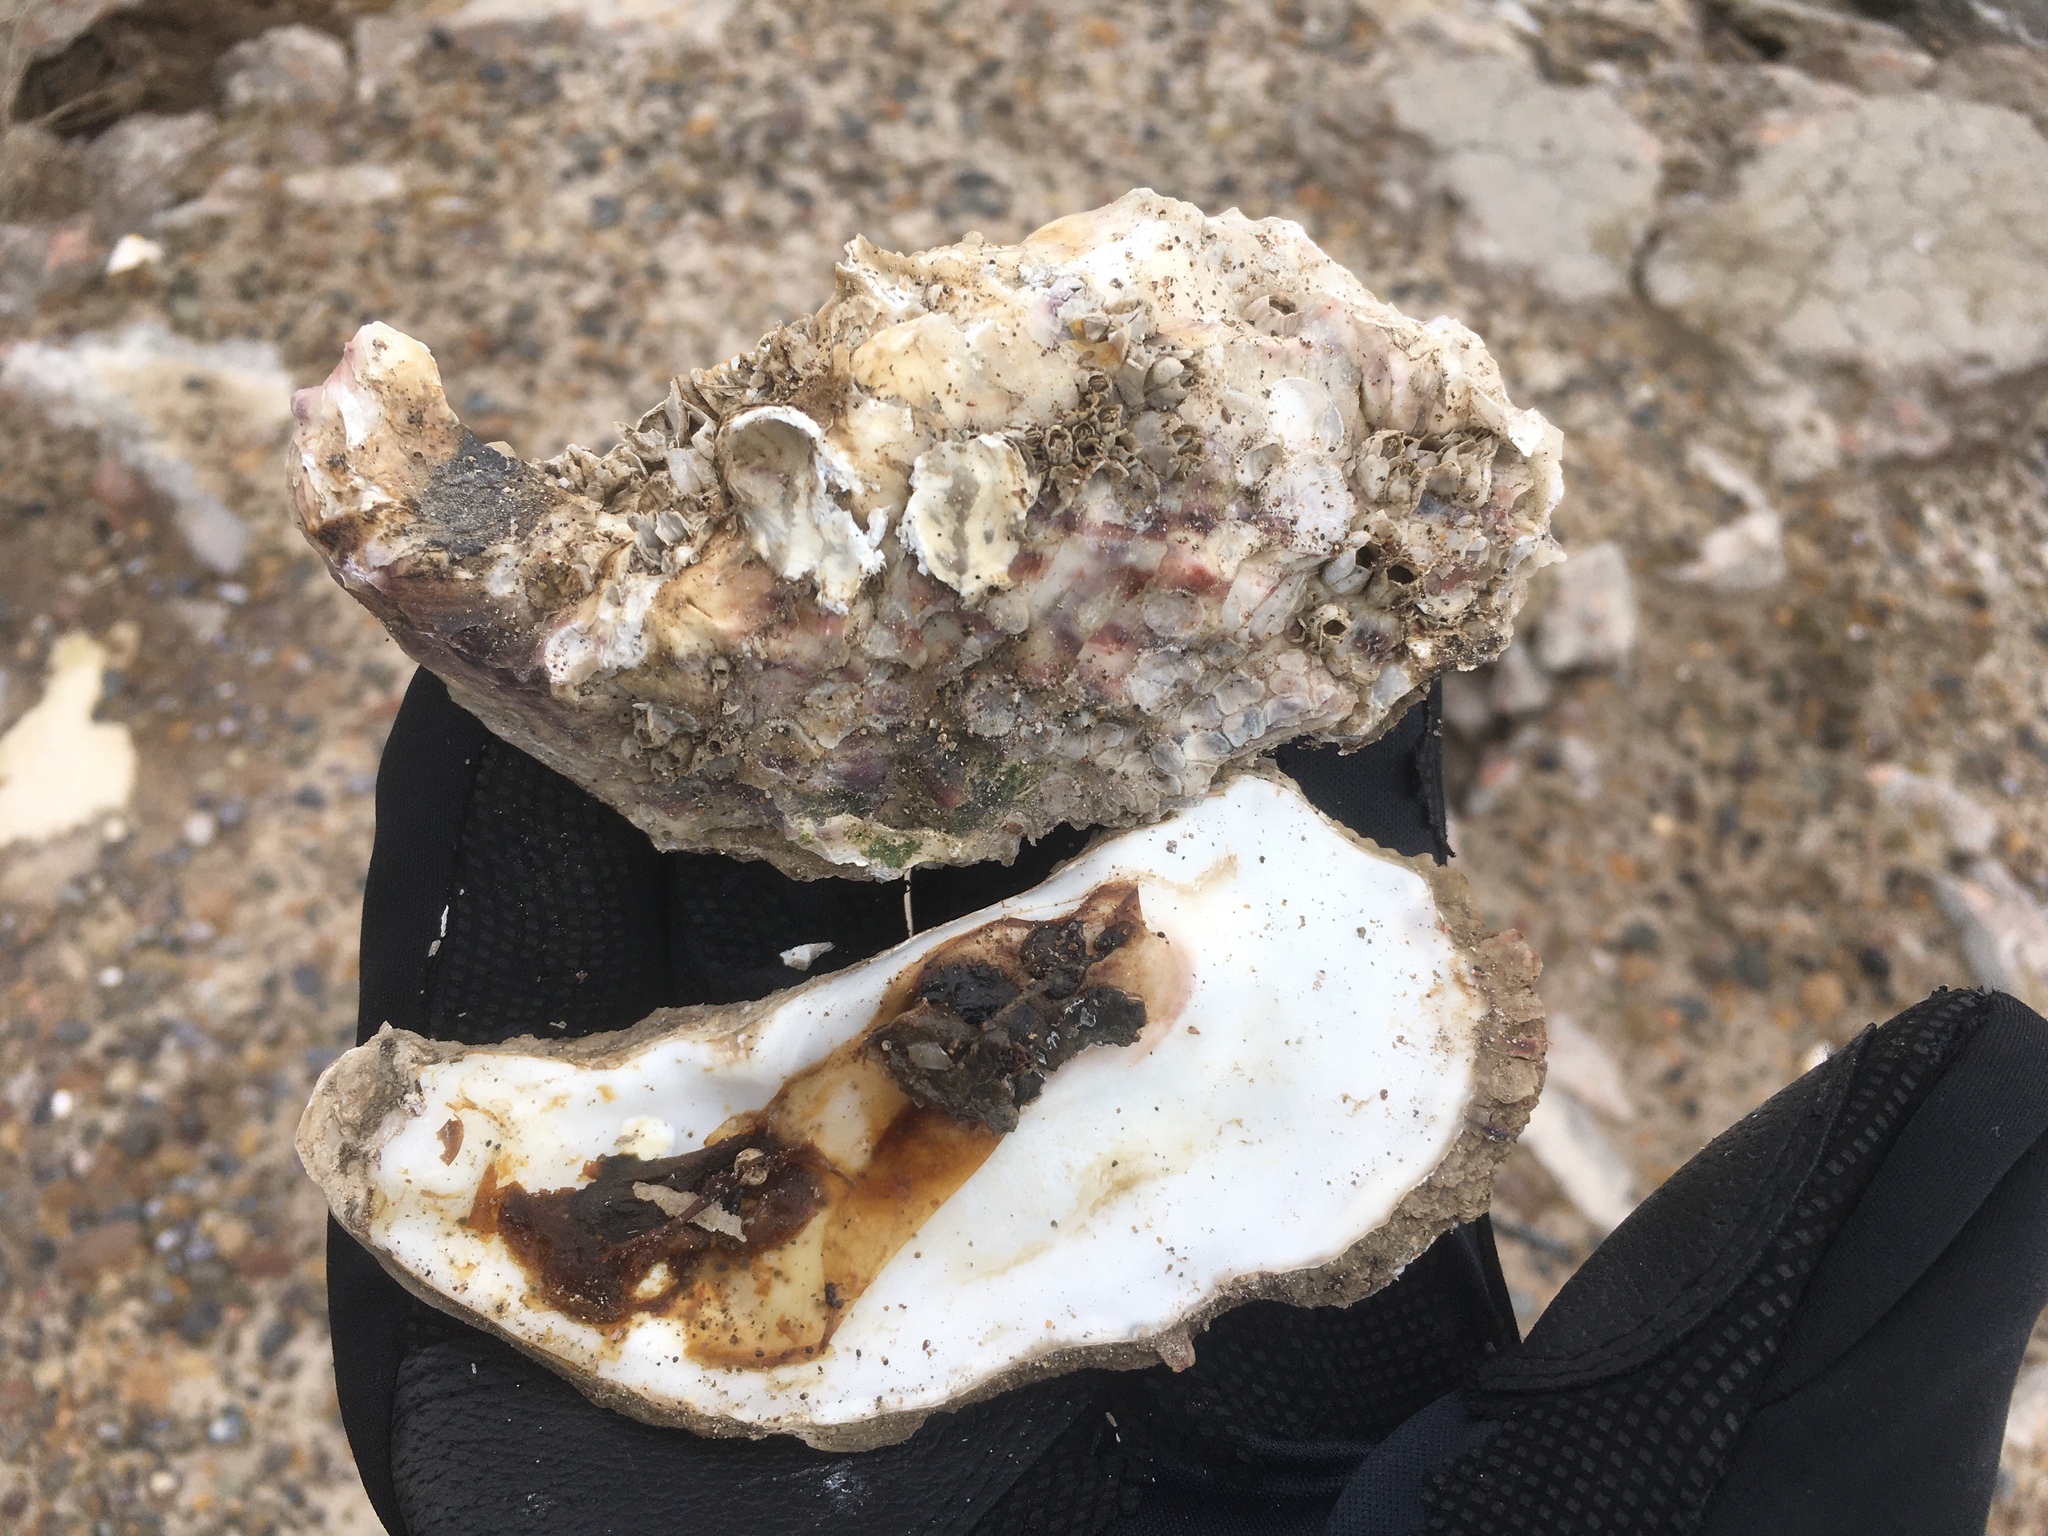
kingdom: Animalia
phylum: Mollusca
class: Bivalvia
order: Ostreida
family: Ostreidae
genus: Magallana
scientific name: Magallana gigas
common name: Pacific oyster
